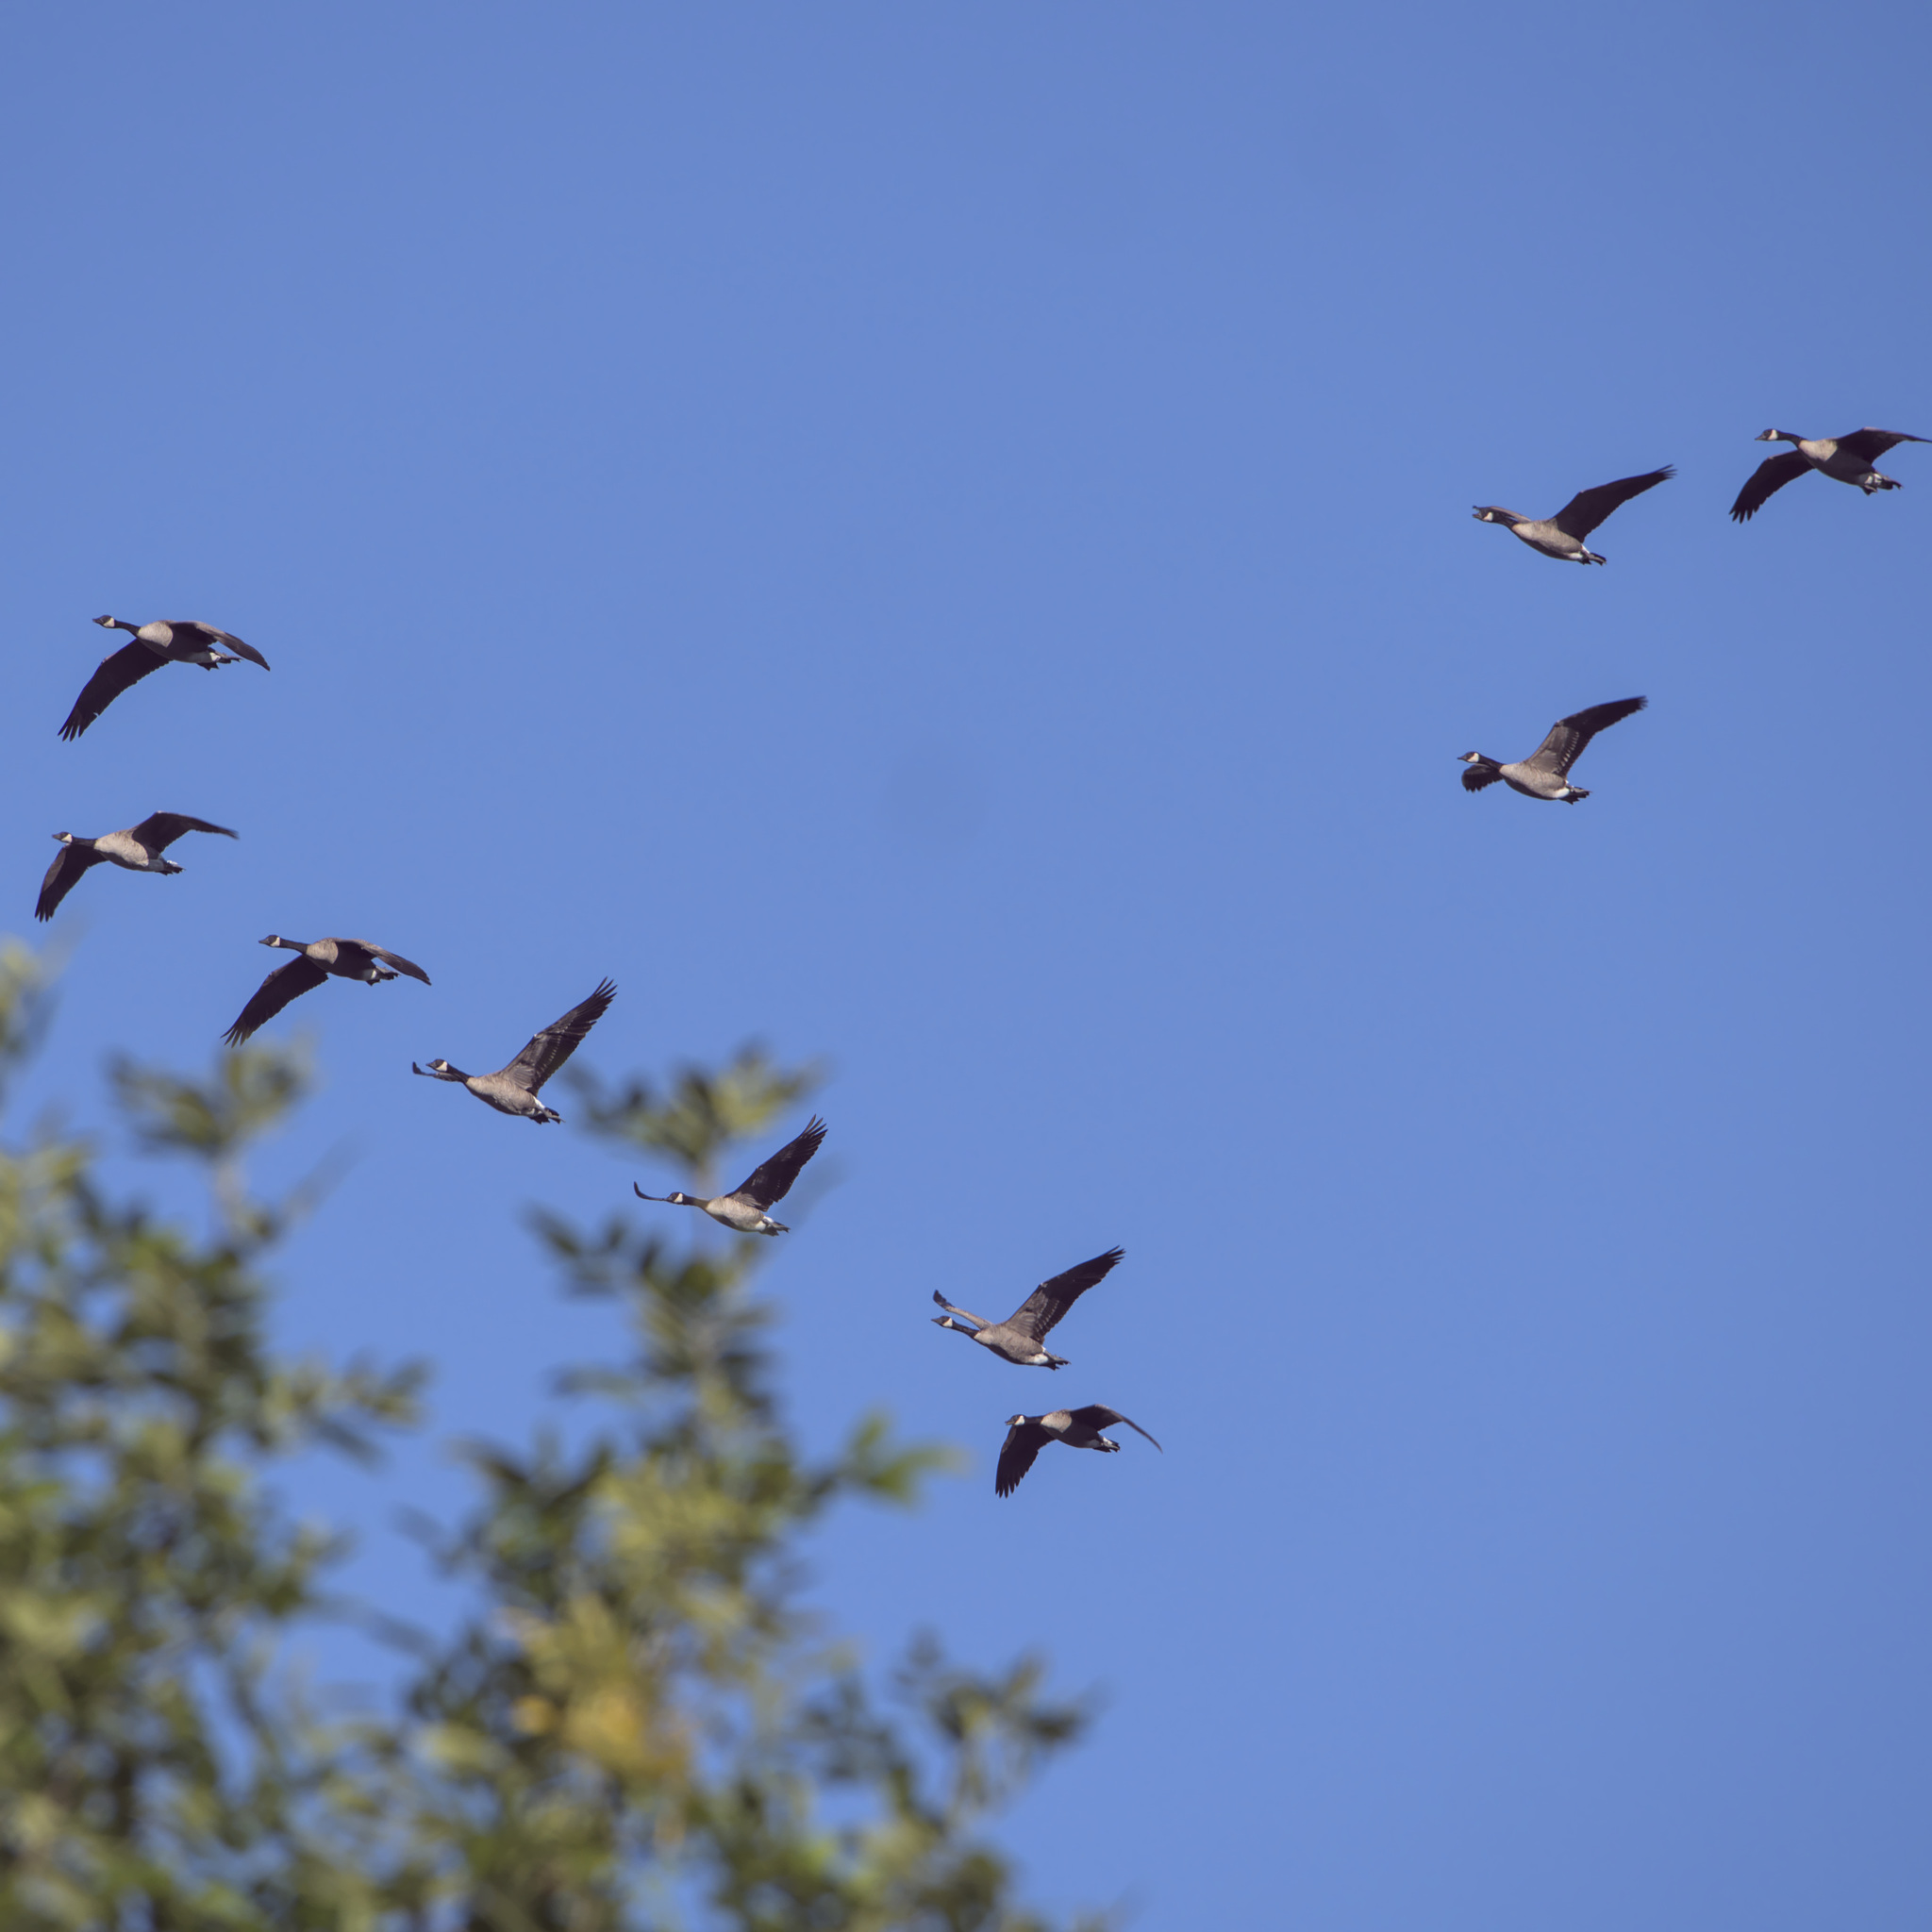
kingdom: Animalia
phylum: Chordata
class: Aves
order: Anseriformes
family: Anatidae
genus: Branta
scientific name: Branta canadensis
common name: Canada goose
